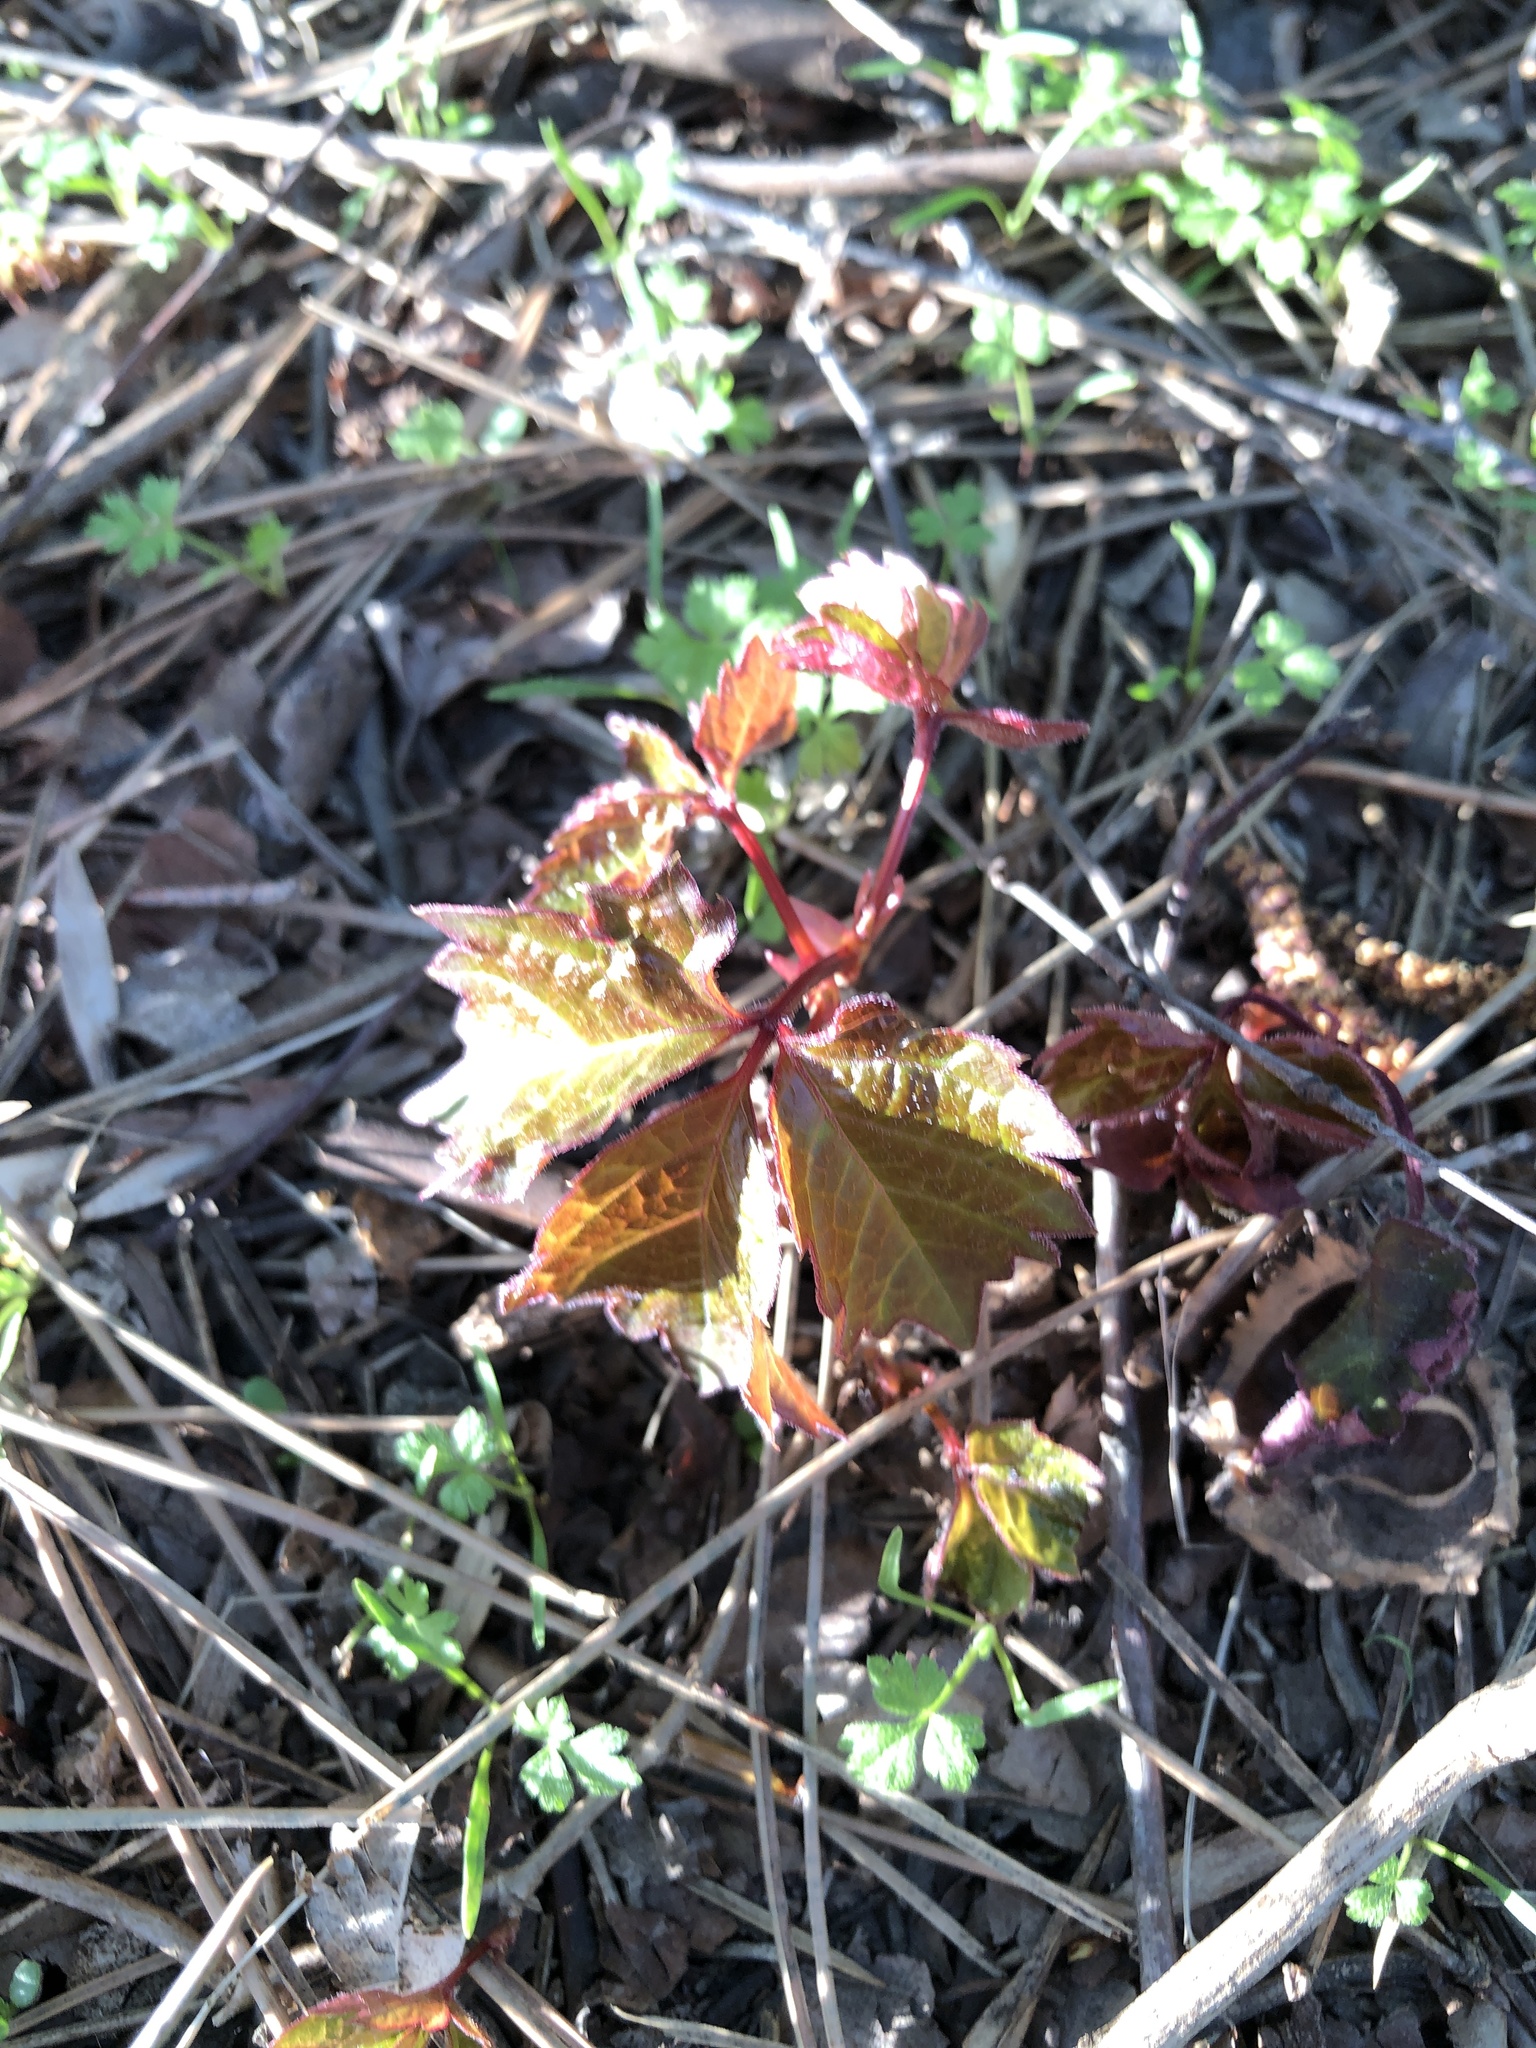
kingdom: Plantae
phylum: Tracheophyta
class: Magnoliopsida
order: Vitales
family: Vitaceae
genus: Parthenocissus
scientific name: Parthenocissus quinquefolia
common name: Virginia-creeper
